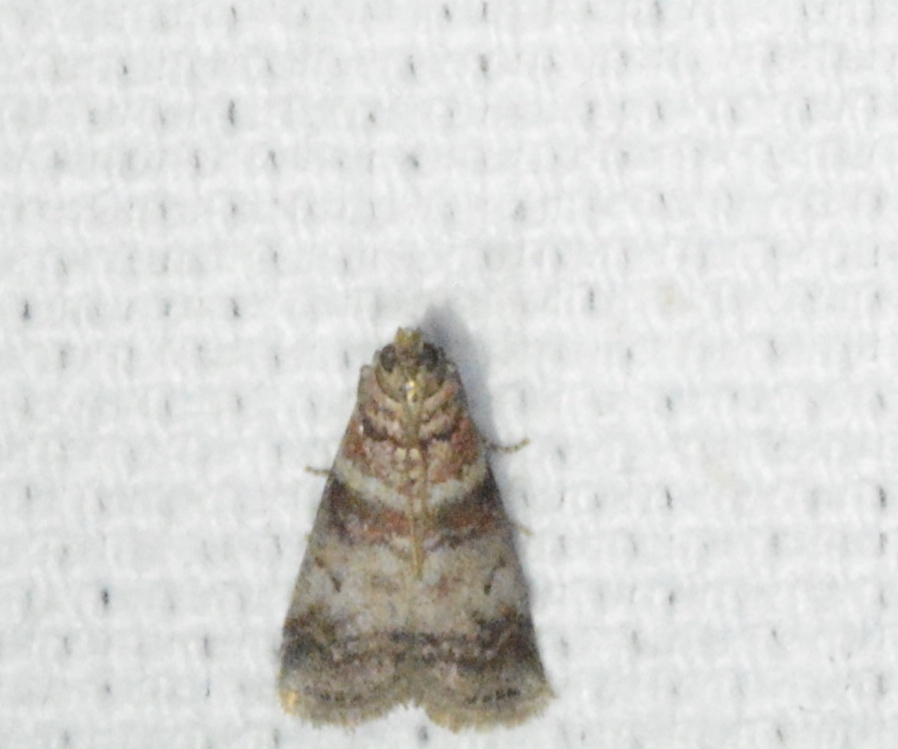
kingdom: Animalia
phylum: Arthropoda
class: Insecta
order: Lepidoptera
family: Pyralidae
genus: Sciota
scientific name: Sciota uvinella
